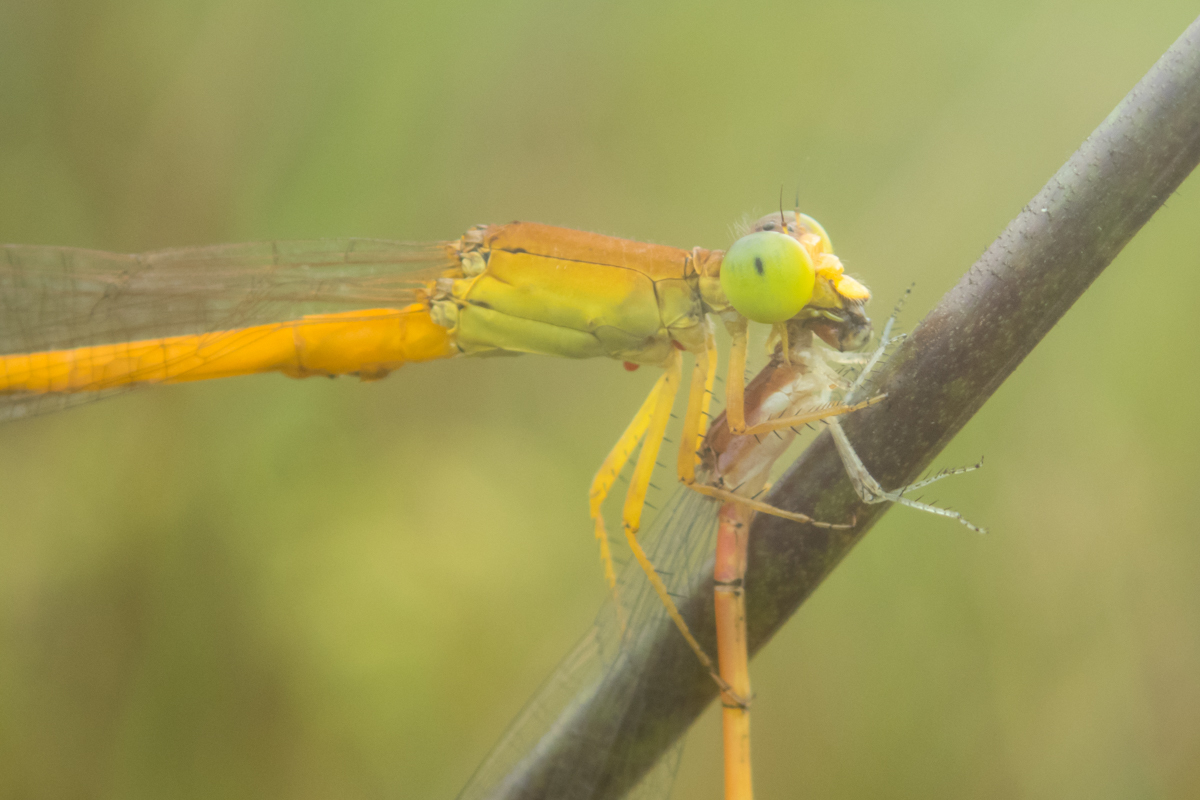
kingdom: Animalia
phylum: Arthropoda
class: Insecta
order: Odonata
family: Coenagrionidae
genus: Ceriagrion
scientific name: Ceriagrion calamineum
